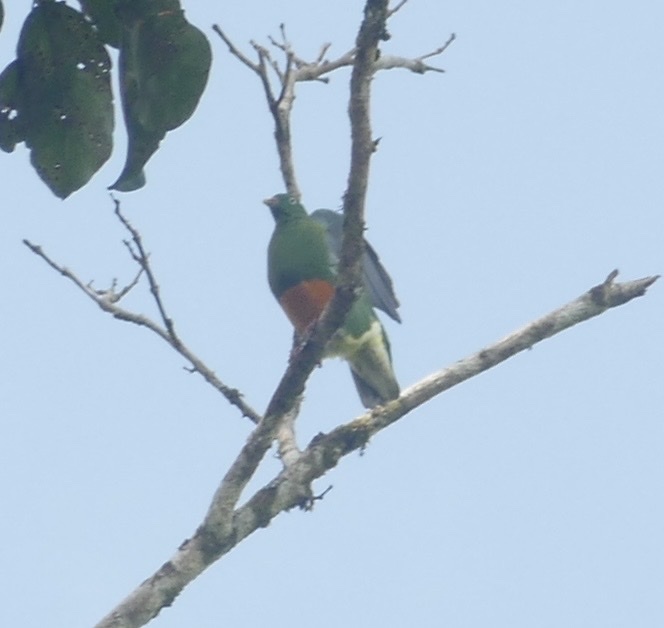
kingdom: Animalia
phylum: Chordata
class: Aves
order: Columbiformes
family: Columbidae
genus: Ptilinopus
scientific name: Ptilinopus iozonus
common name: Orange-bellied fruit dove
